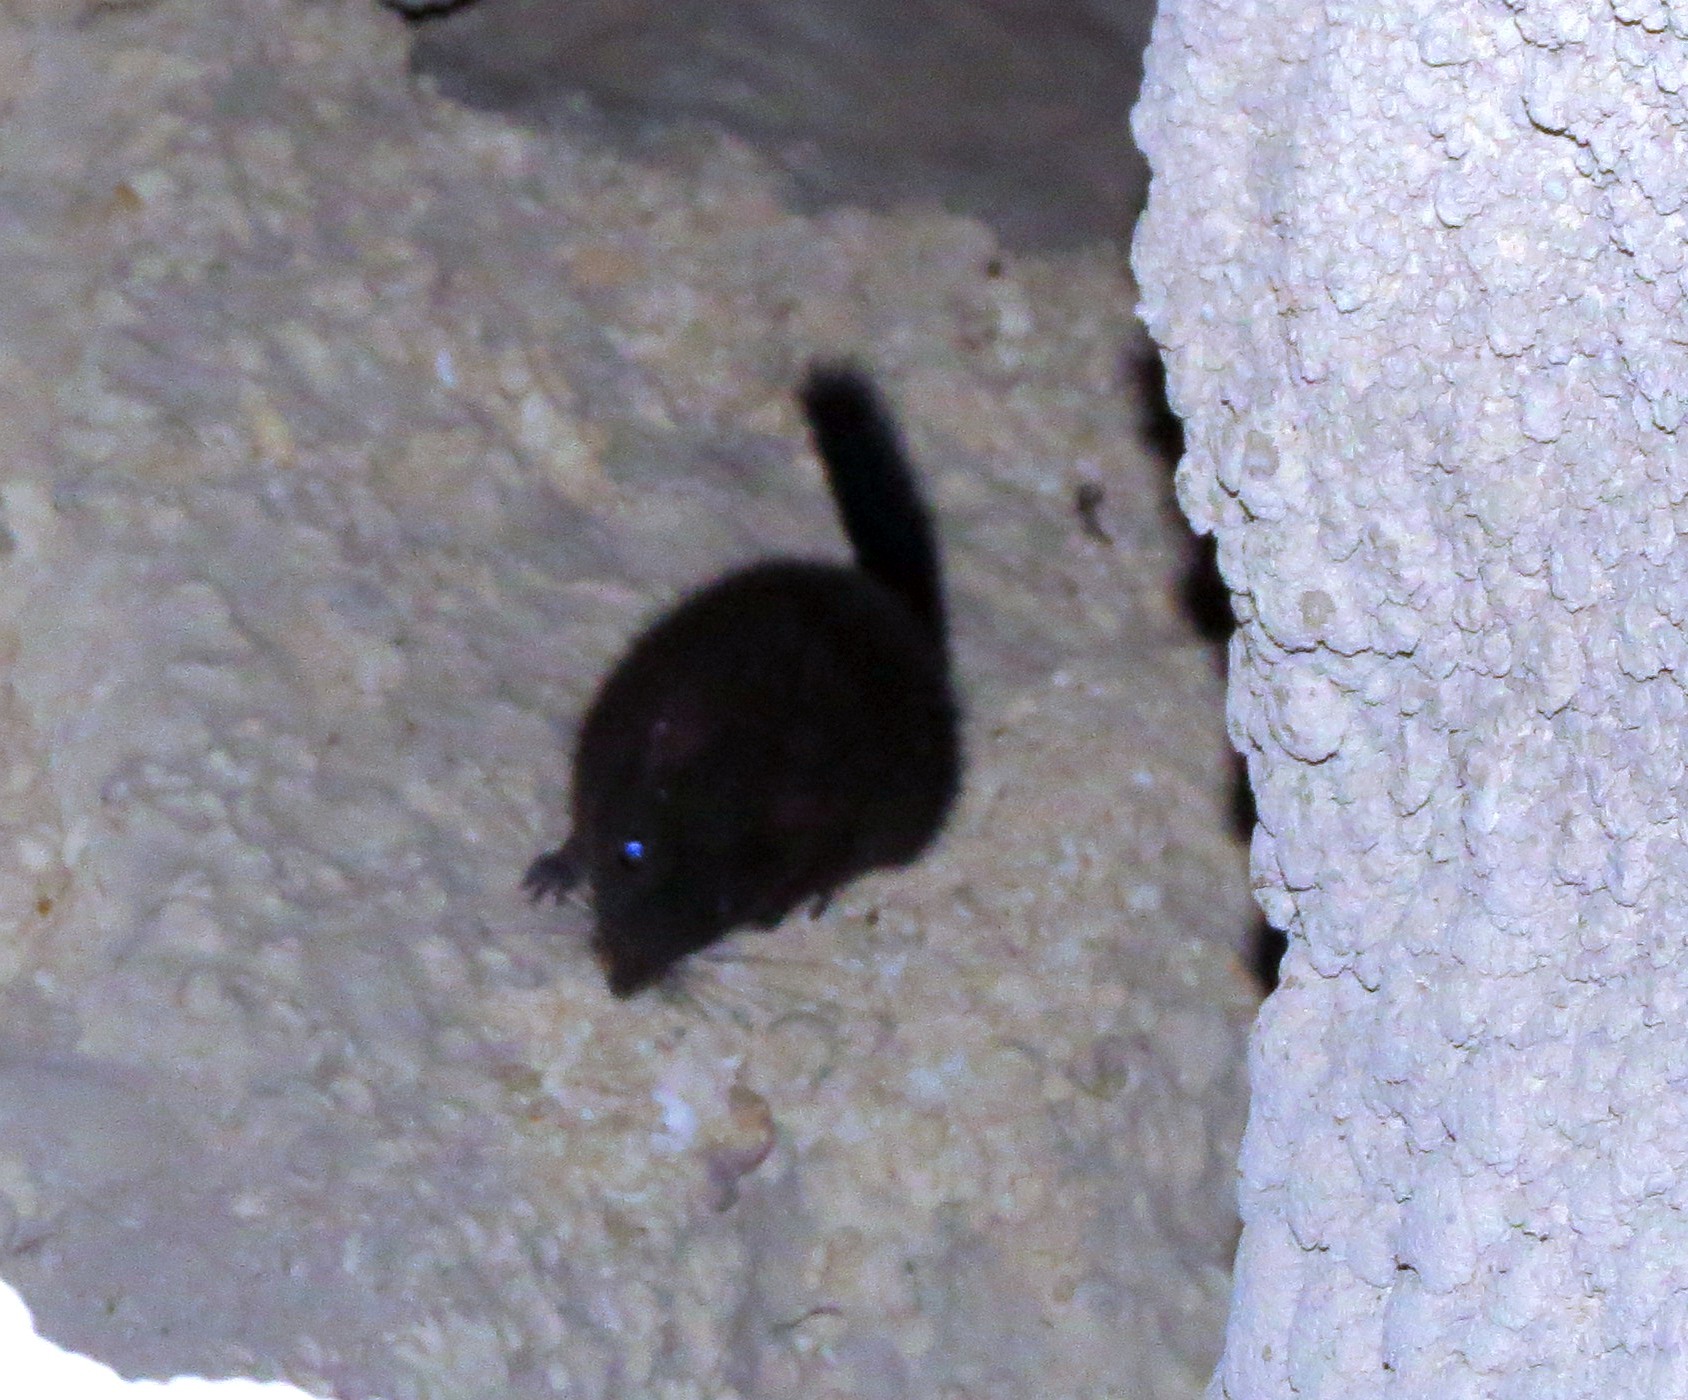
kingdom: Animalia
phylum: Chordata
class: Mammalia
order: Rodentia
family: Nesomyidae
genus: Nesomys
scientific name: Nesomys lambertoni
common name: Western nesomys
